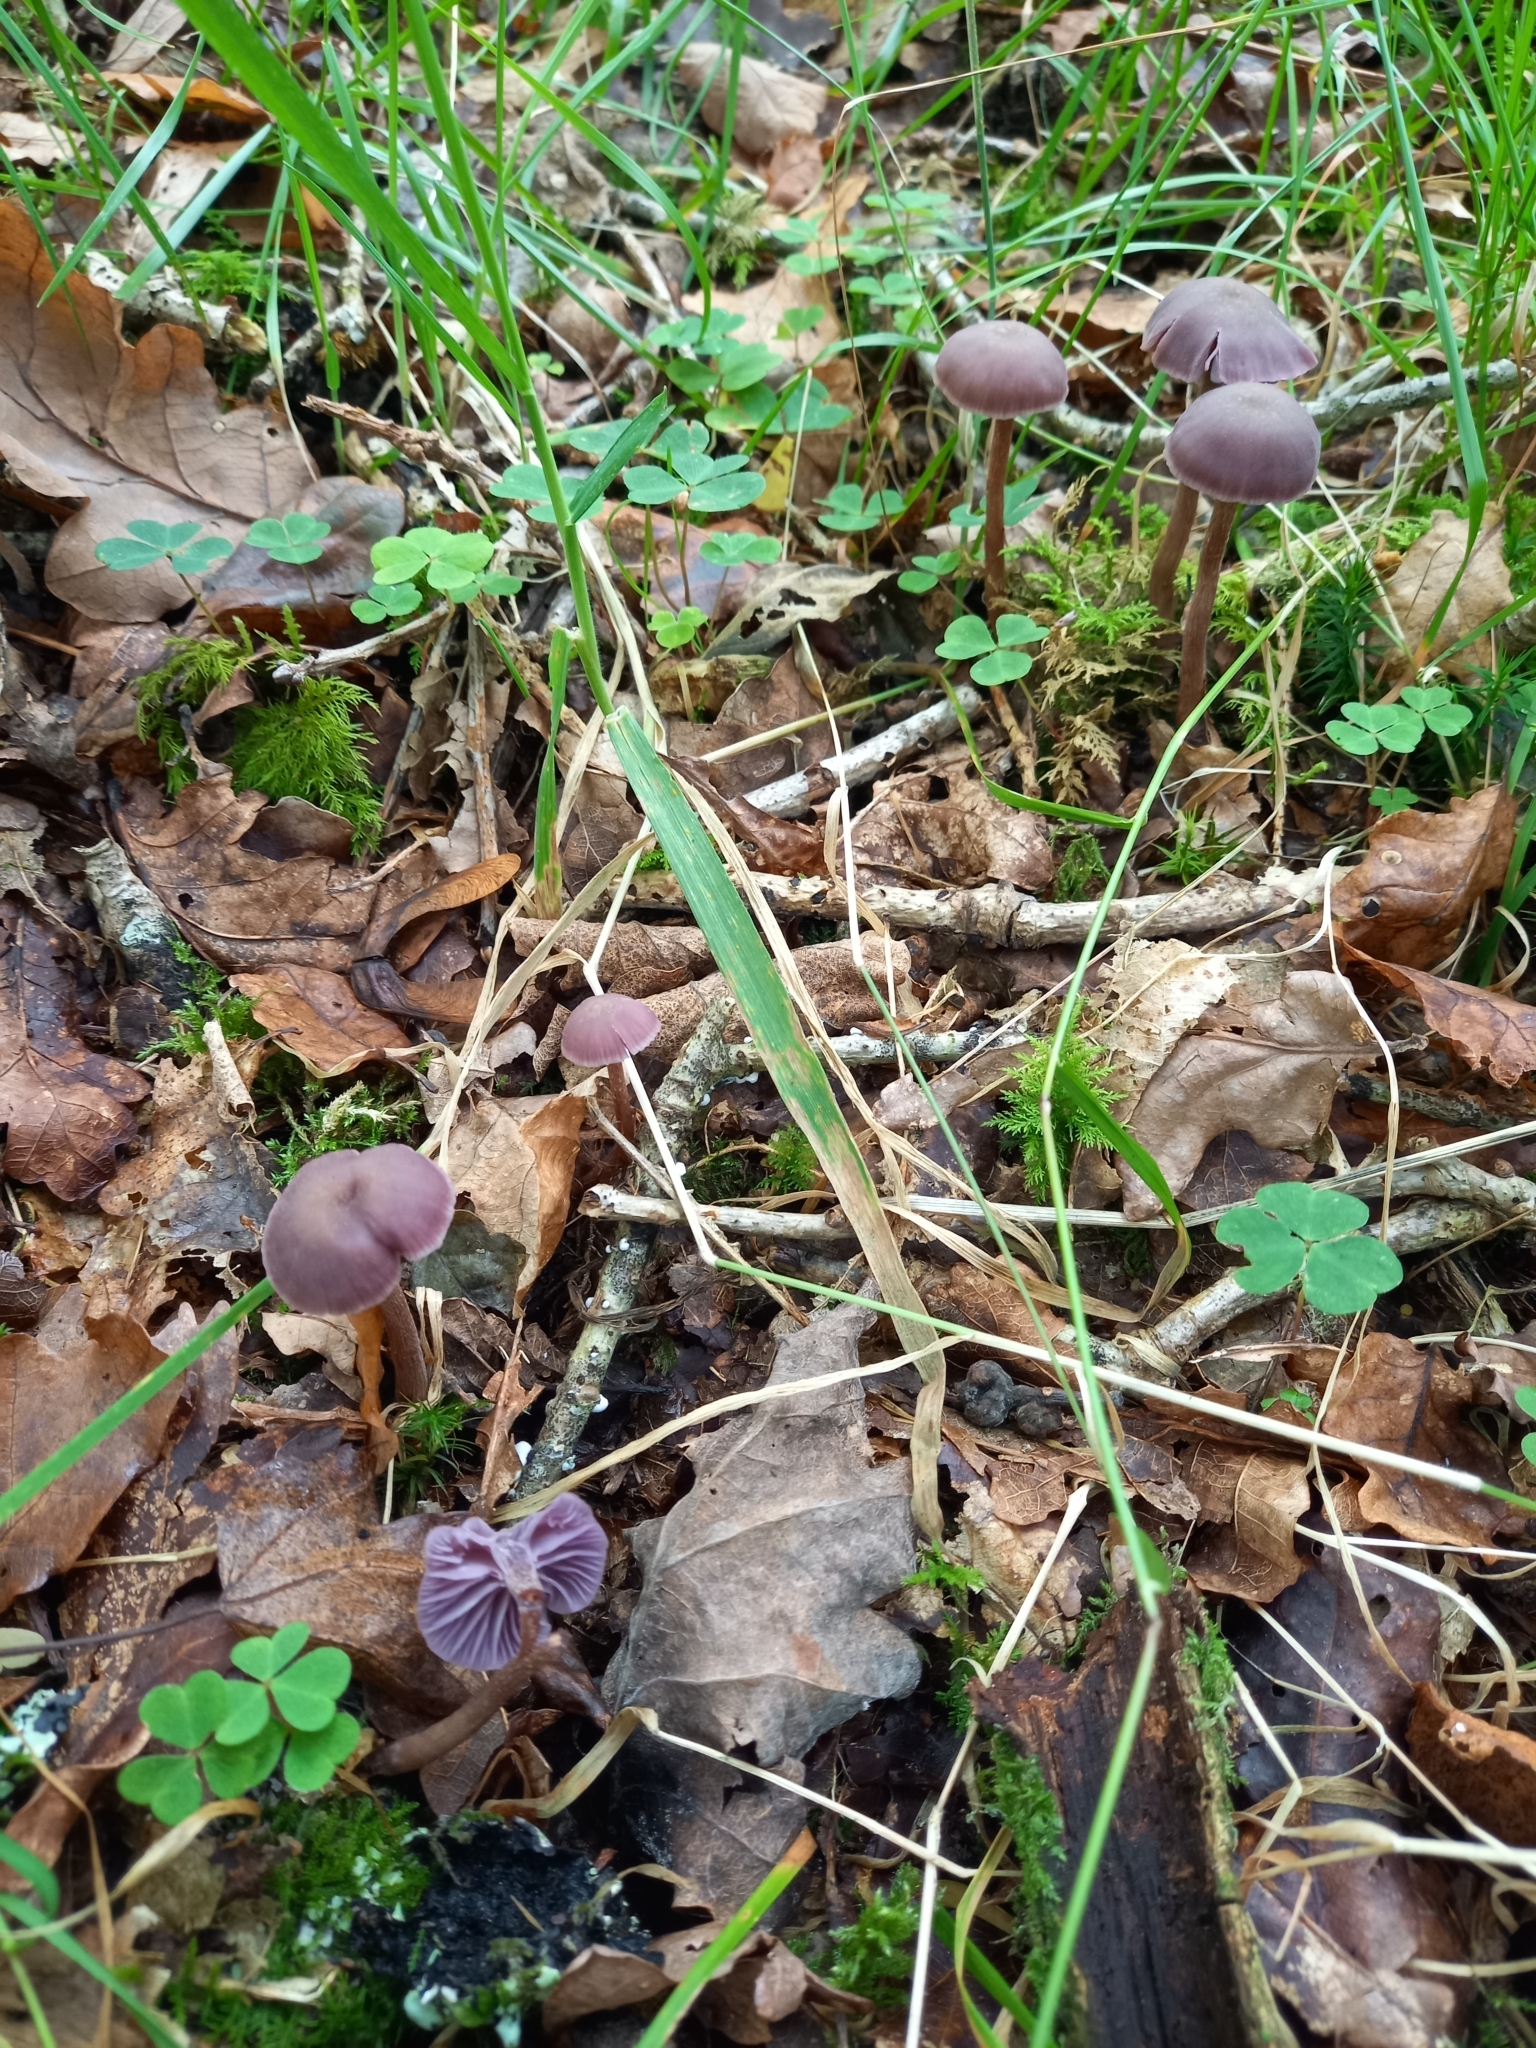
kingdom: Fungi
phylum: Basidiomycota
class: Agaricomycetes
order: Agaricales
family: Hydnangiaceae
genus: Laccaria
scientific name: Laccaria amethystina
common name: Amethyst deceiver
